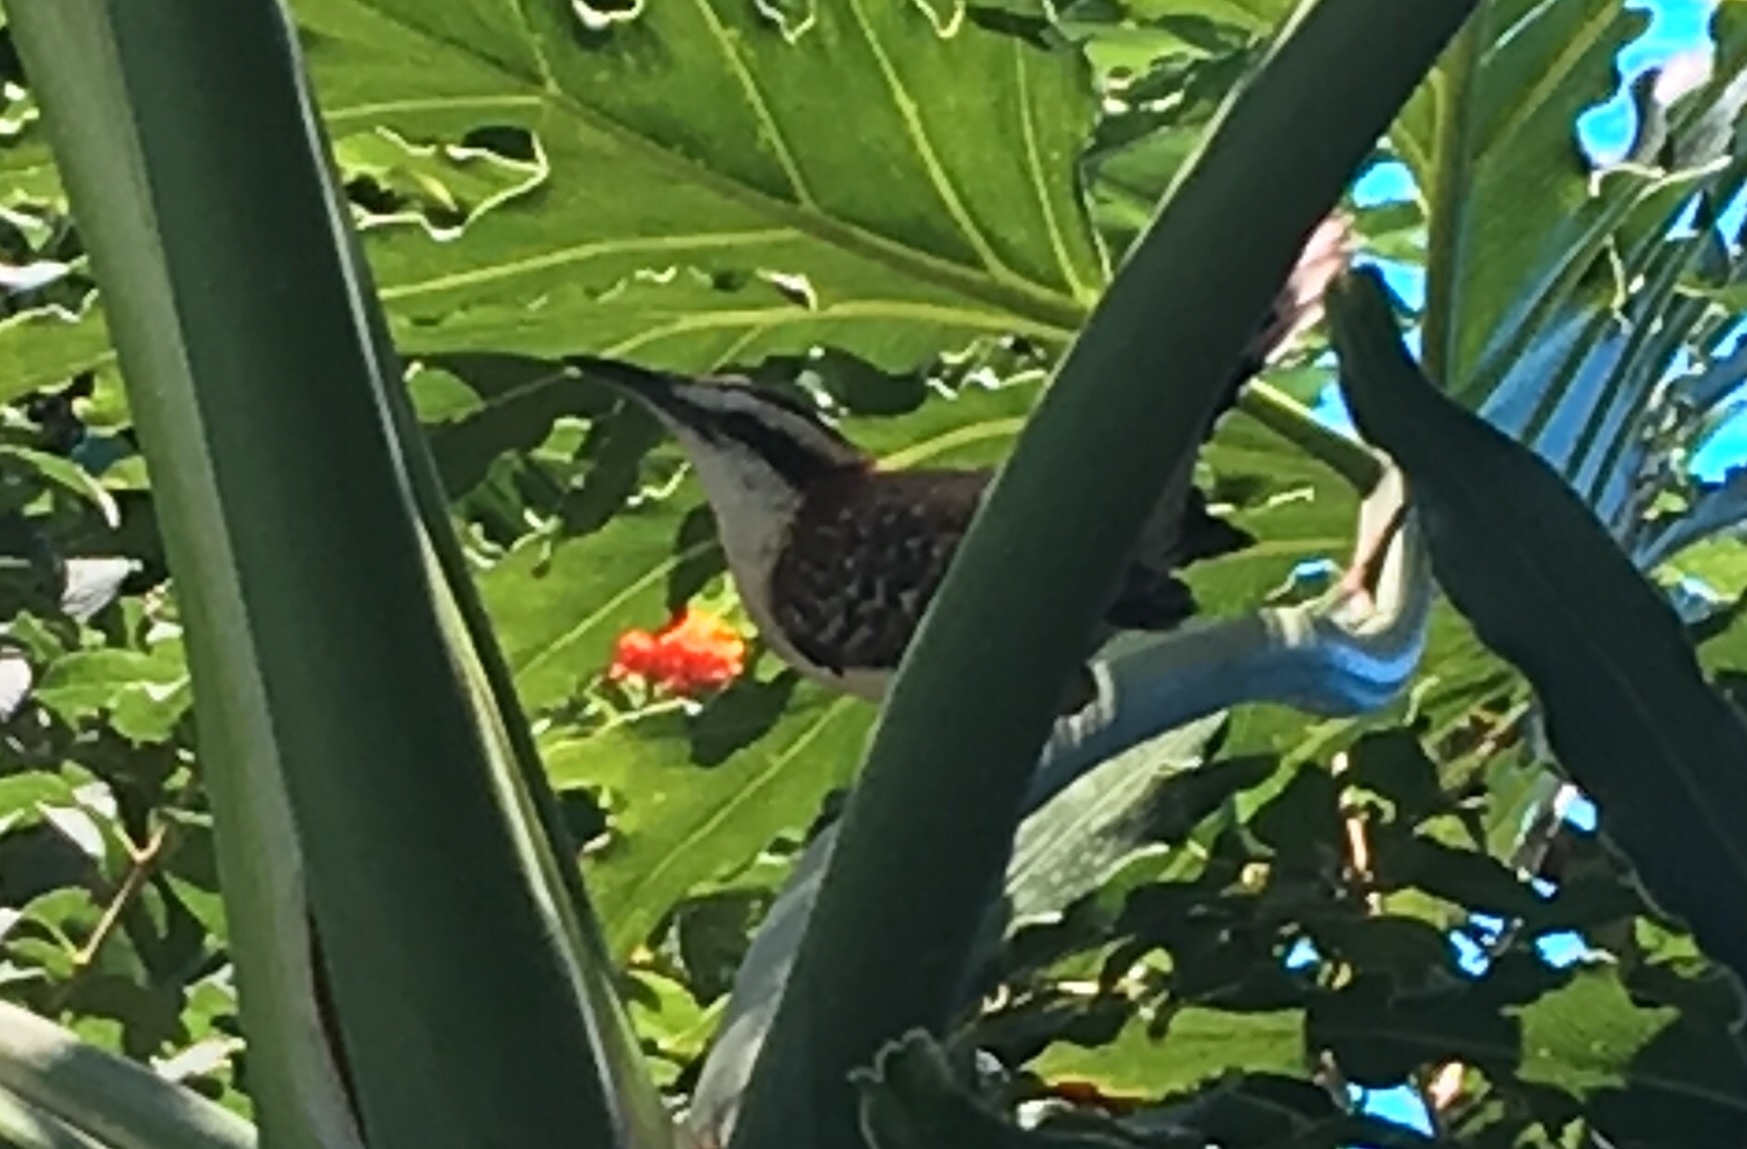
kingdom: Animalia
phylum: Chordata
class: Aves
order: Passeriformes
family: Troglodytidae
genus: Campylorhynchus
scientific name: Campylorhynchus rufinucha
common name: Rufous-naped wren
